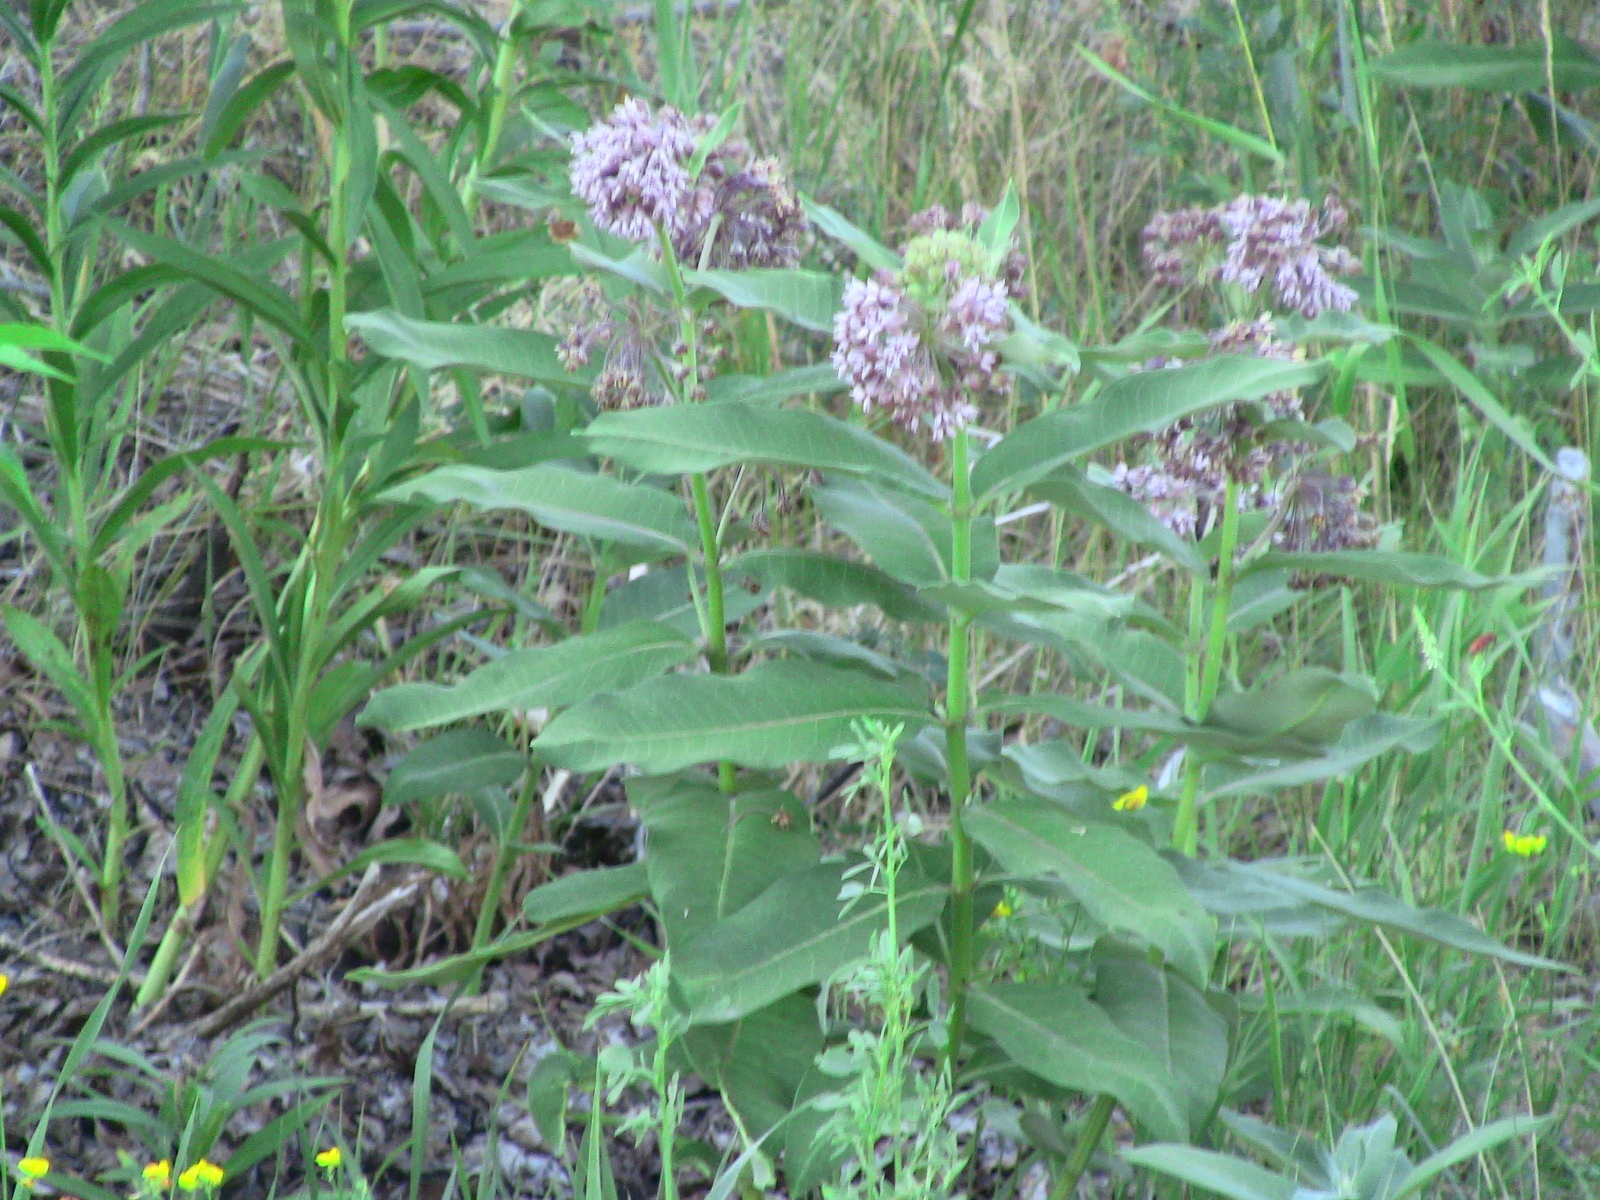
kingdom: Plantae
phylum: Tracheophyta
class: Magnoliopsida
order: Gentianales
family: Apocynaceae
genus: Asclepias
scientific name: Asclepias syriaca
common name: Common milkweed
